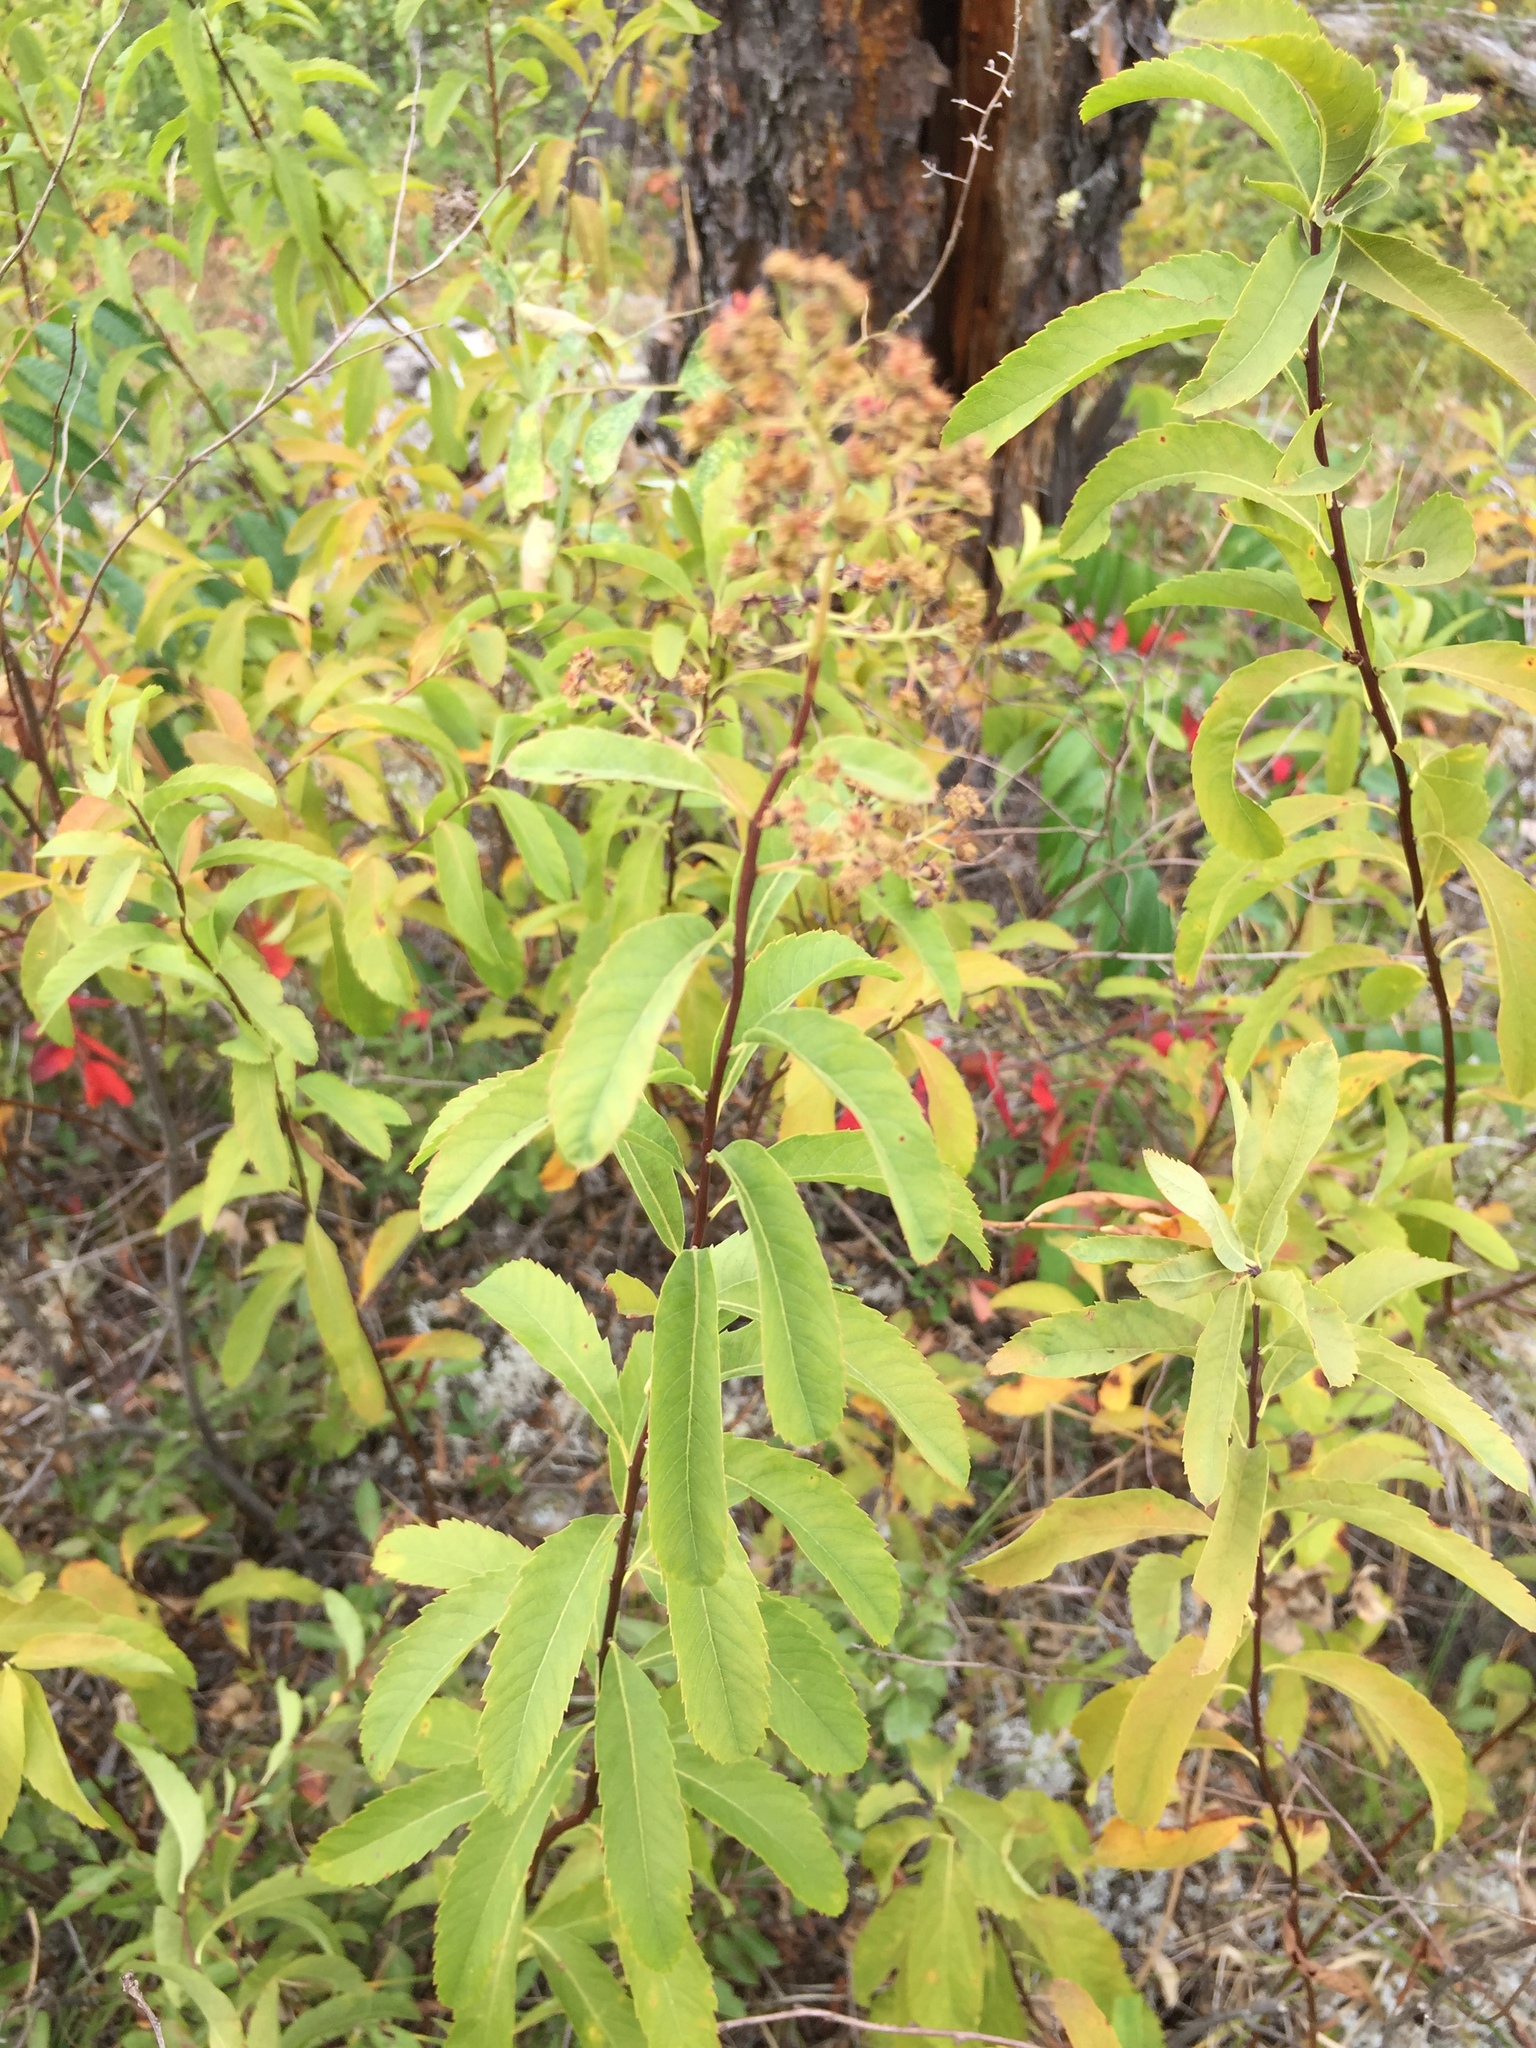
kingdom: Plantae
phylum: Tracheophyta
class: Magnoliopsida
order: Rosales
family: Rosaceae
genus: Spiraea
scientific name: Spiraea alba
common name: Pale bridewort
